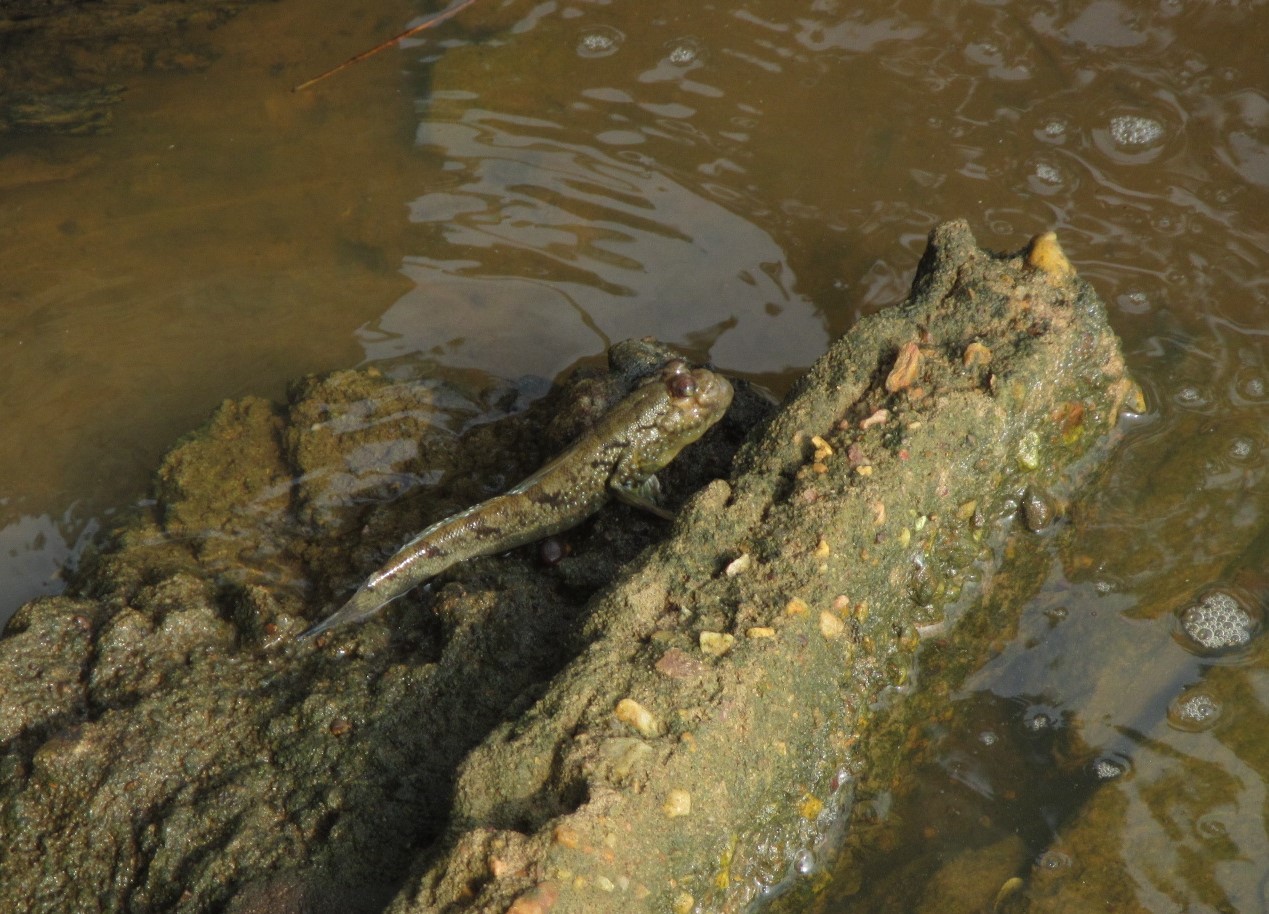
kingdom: Animalia
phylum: Chordata
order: Perciformes
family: Gobiidae
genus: Periophthalmus
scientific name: Periophthalmus barbarus
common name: Atlantic mudskipper
